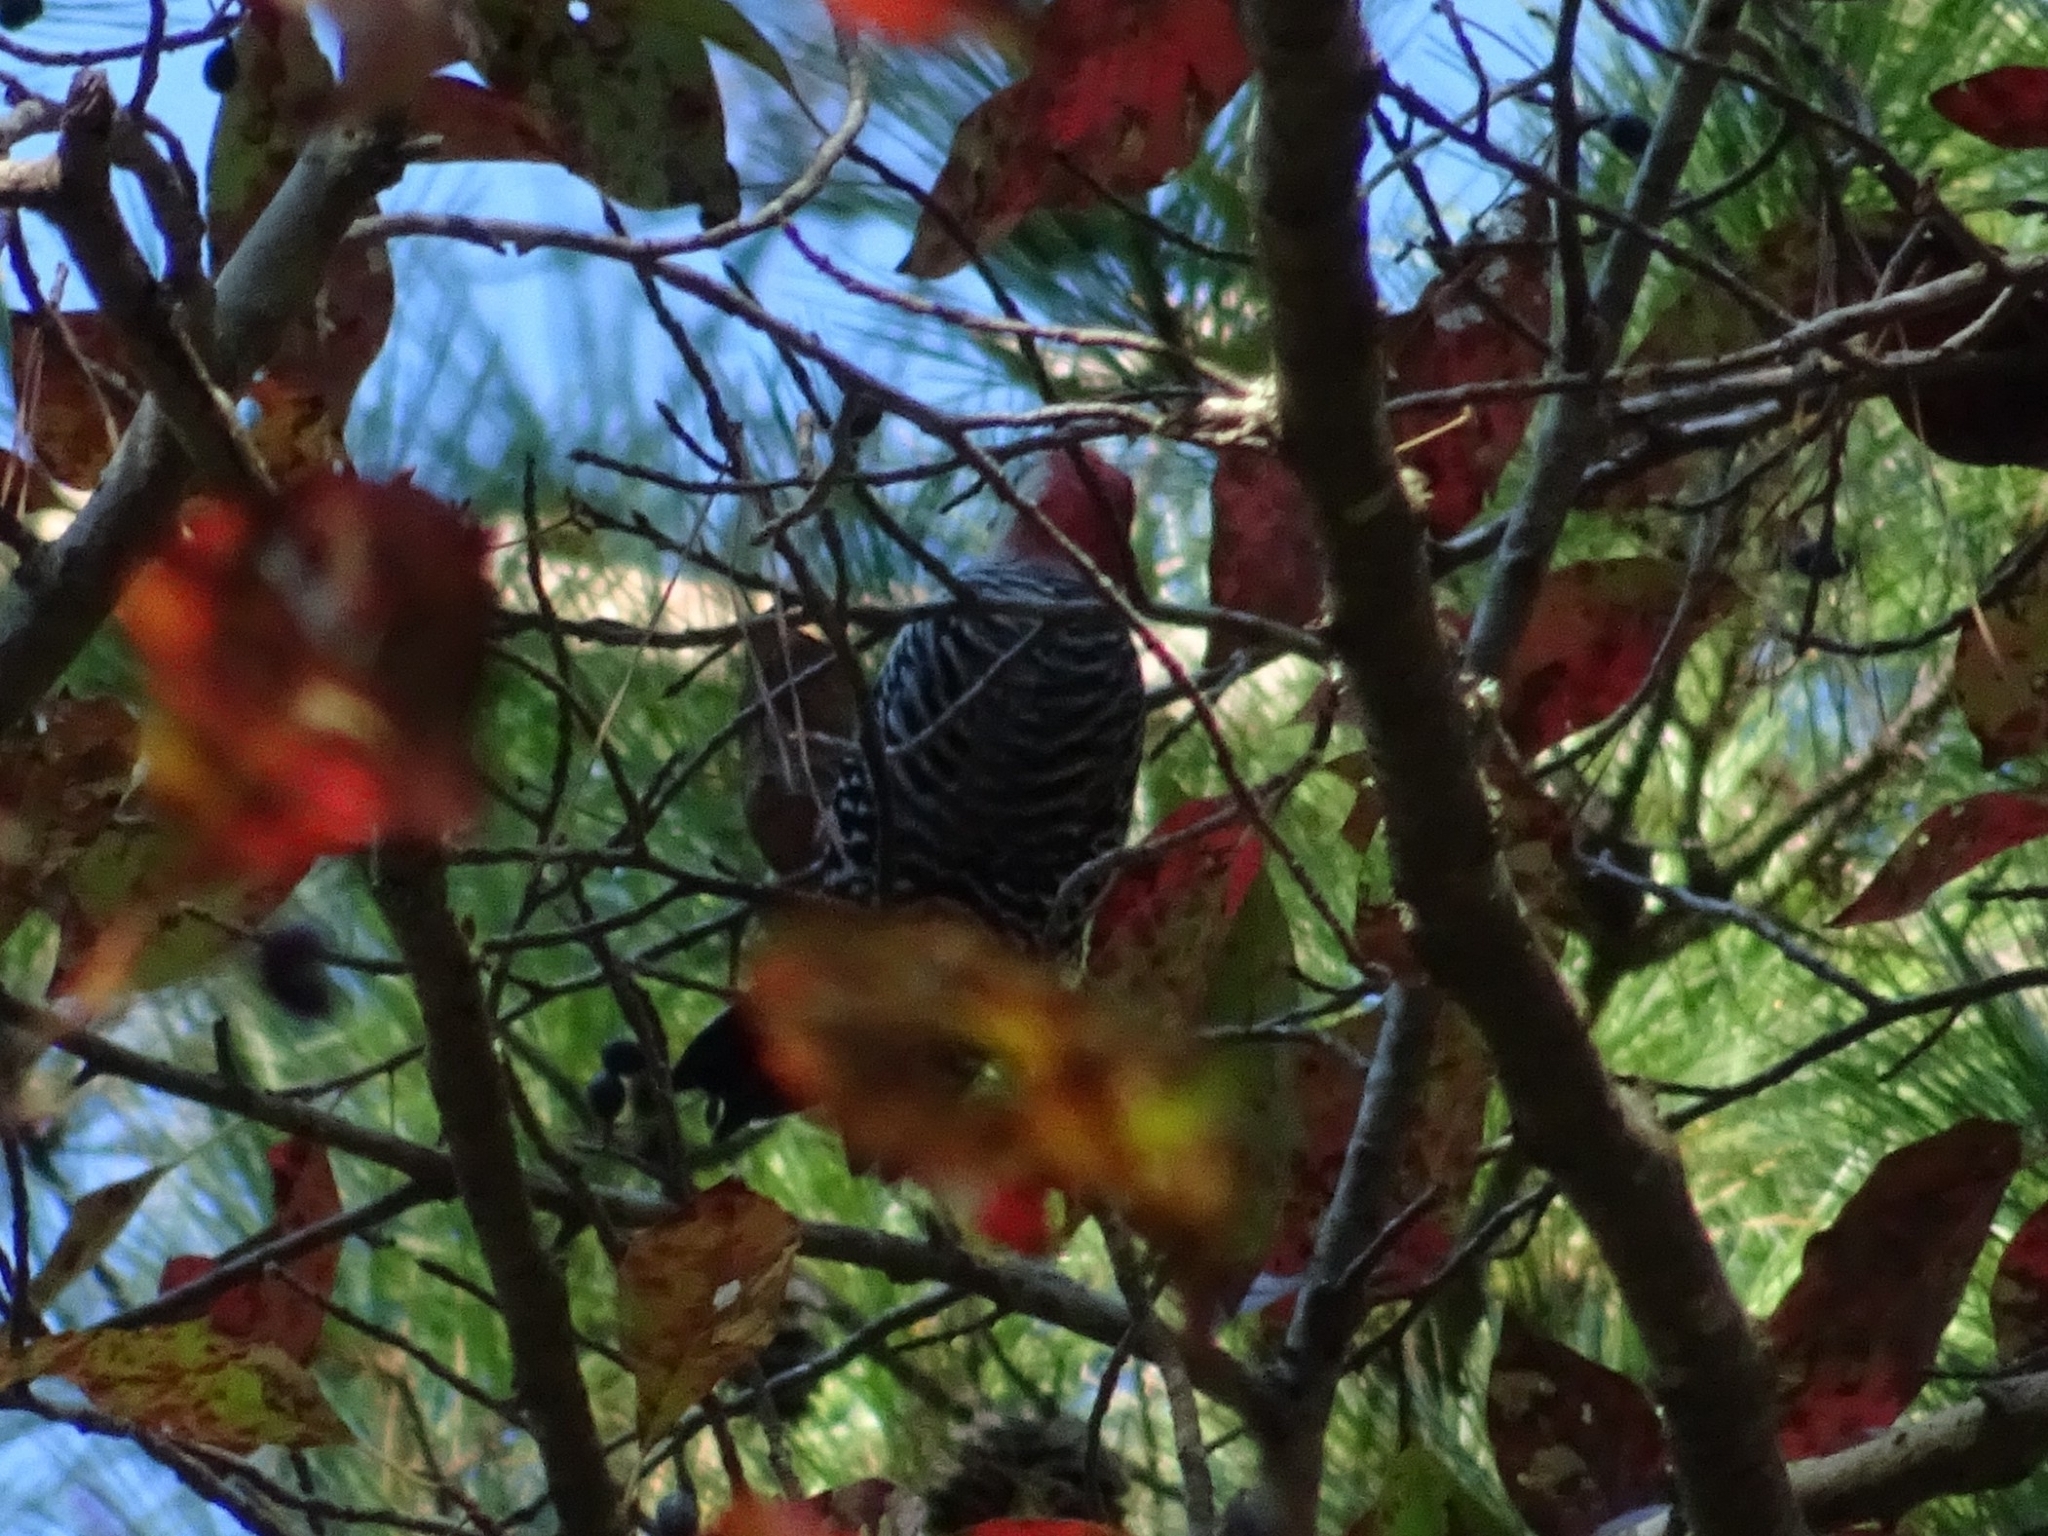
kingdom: Animalia
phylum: Chordata
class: Aves
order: Piciformes
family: Picidae
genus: Melanerpes
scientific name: Melanerpes carolinus
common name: Red-bellied woodpecker
